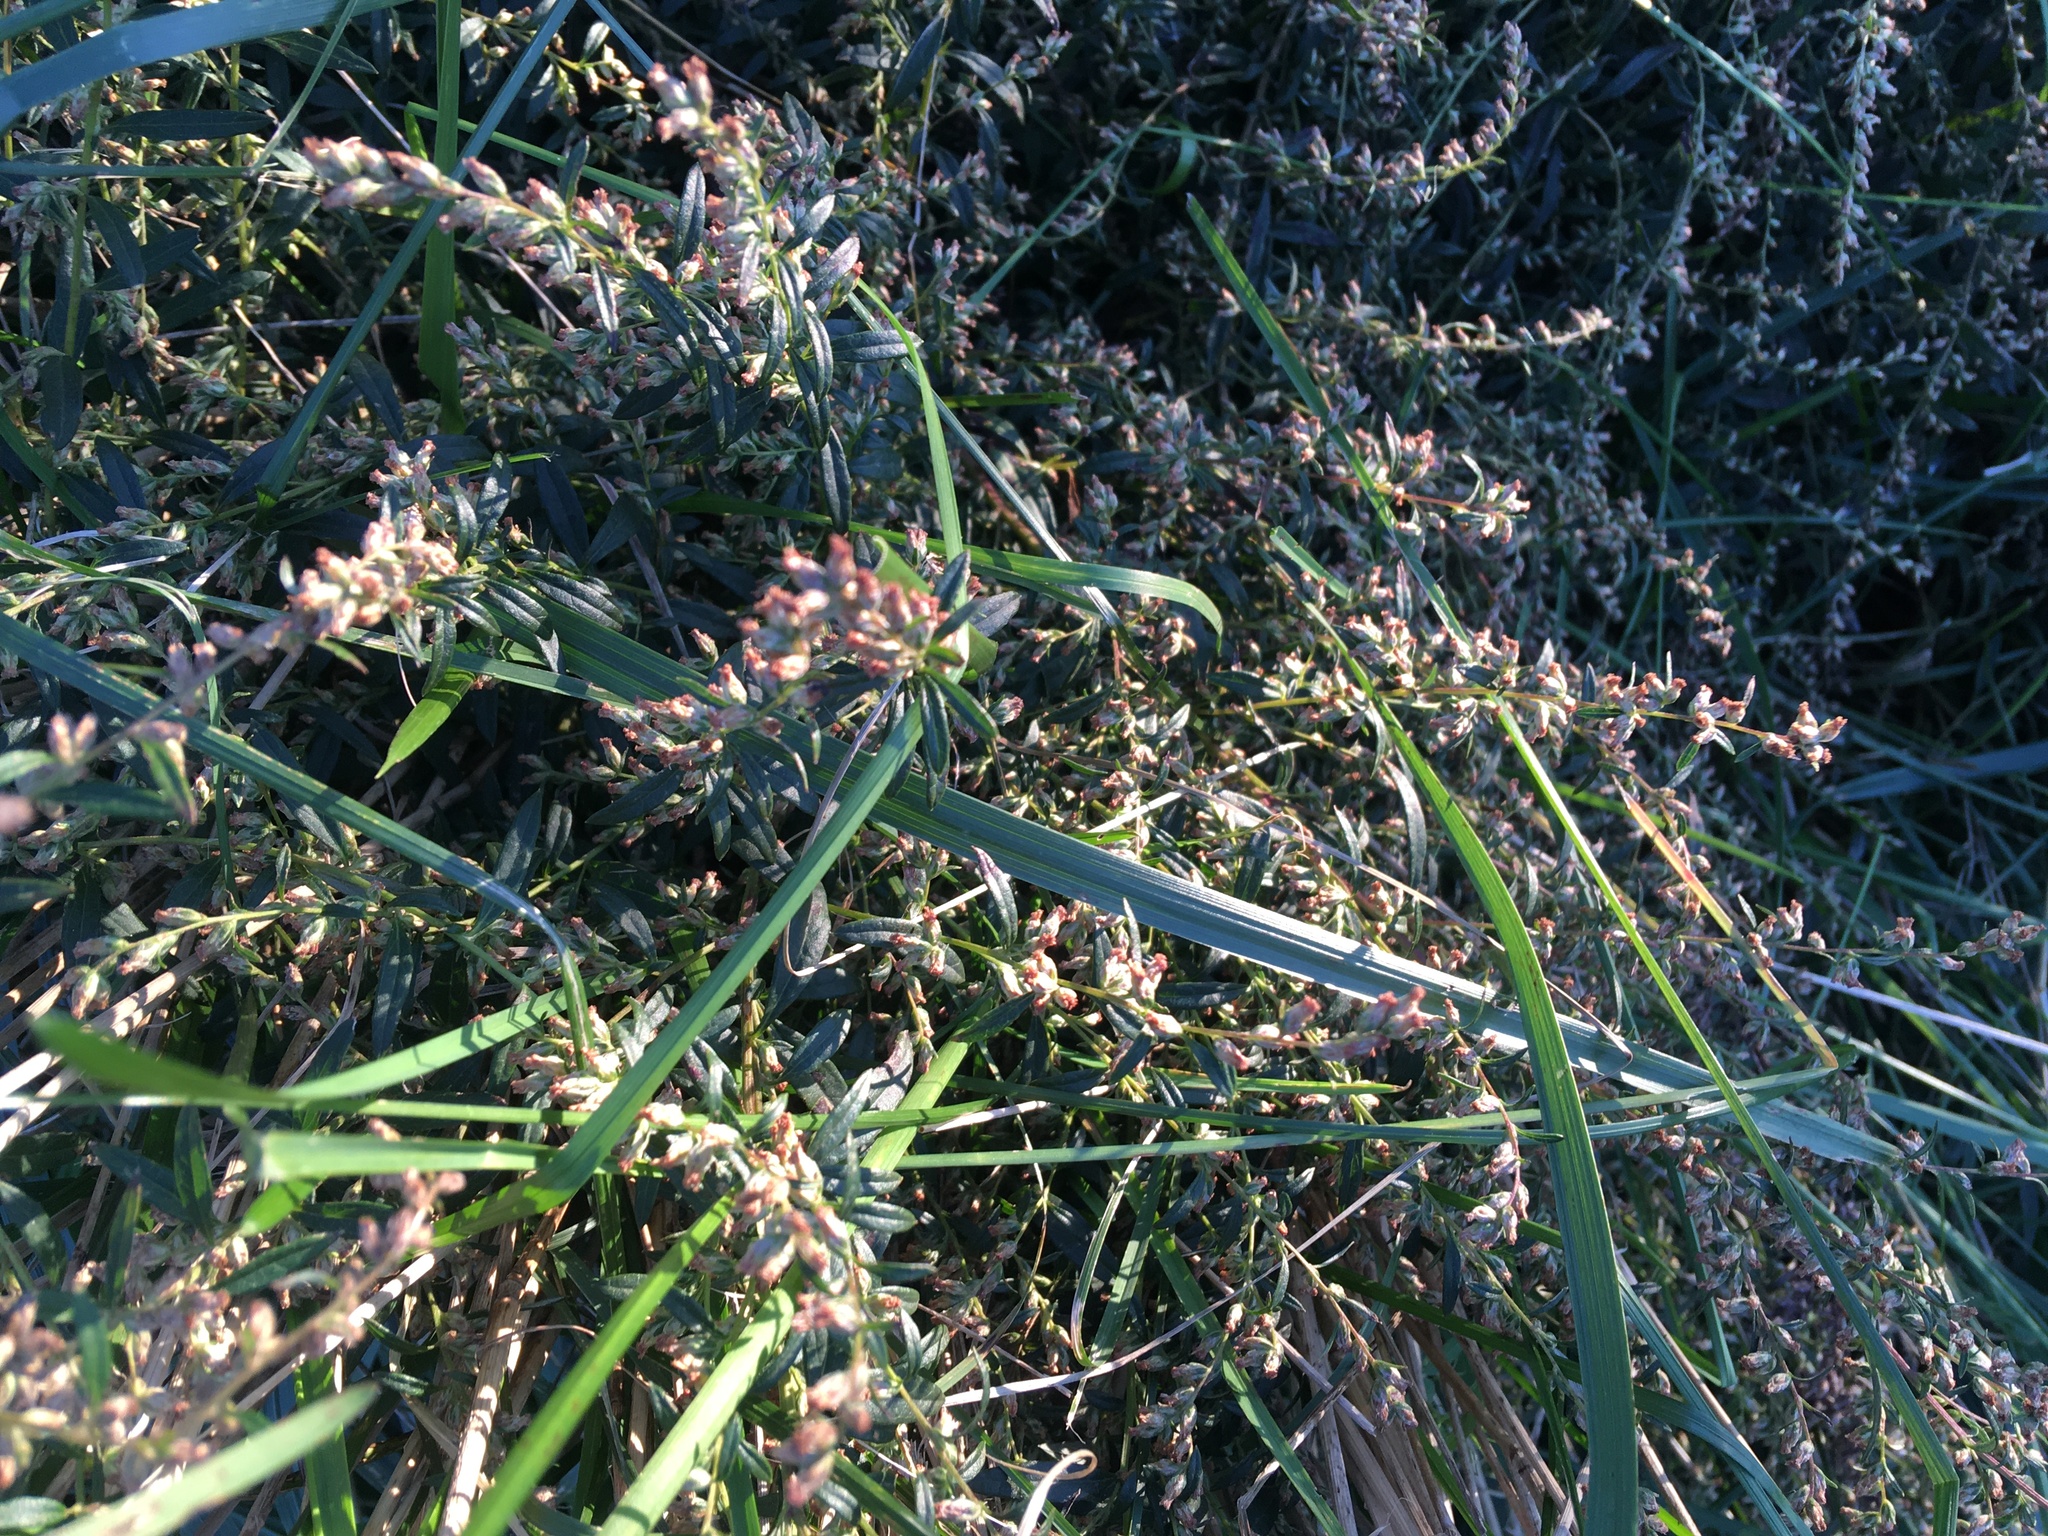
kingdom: Plantae
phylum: Tracheophyta
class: Magnoliopsida
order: Asterales
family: Asteraceae
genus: Artemisia
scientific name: Artemisia vulgaris
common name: Mugwort
